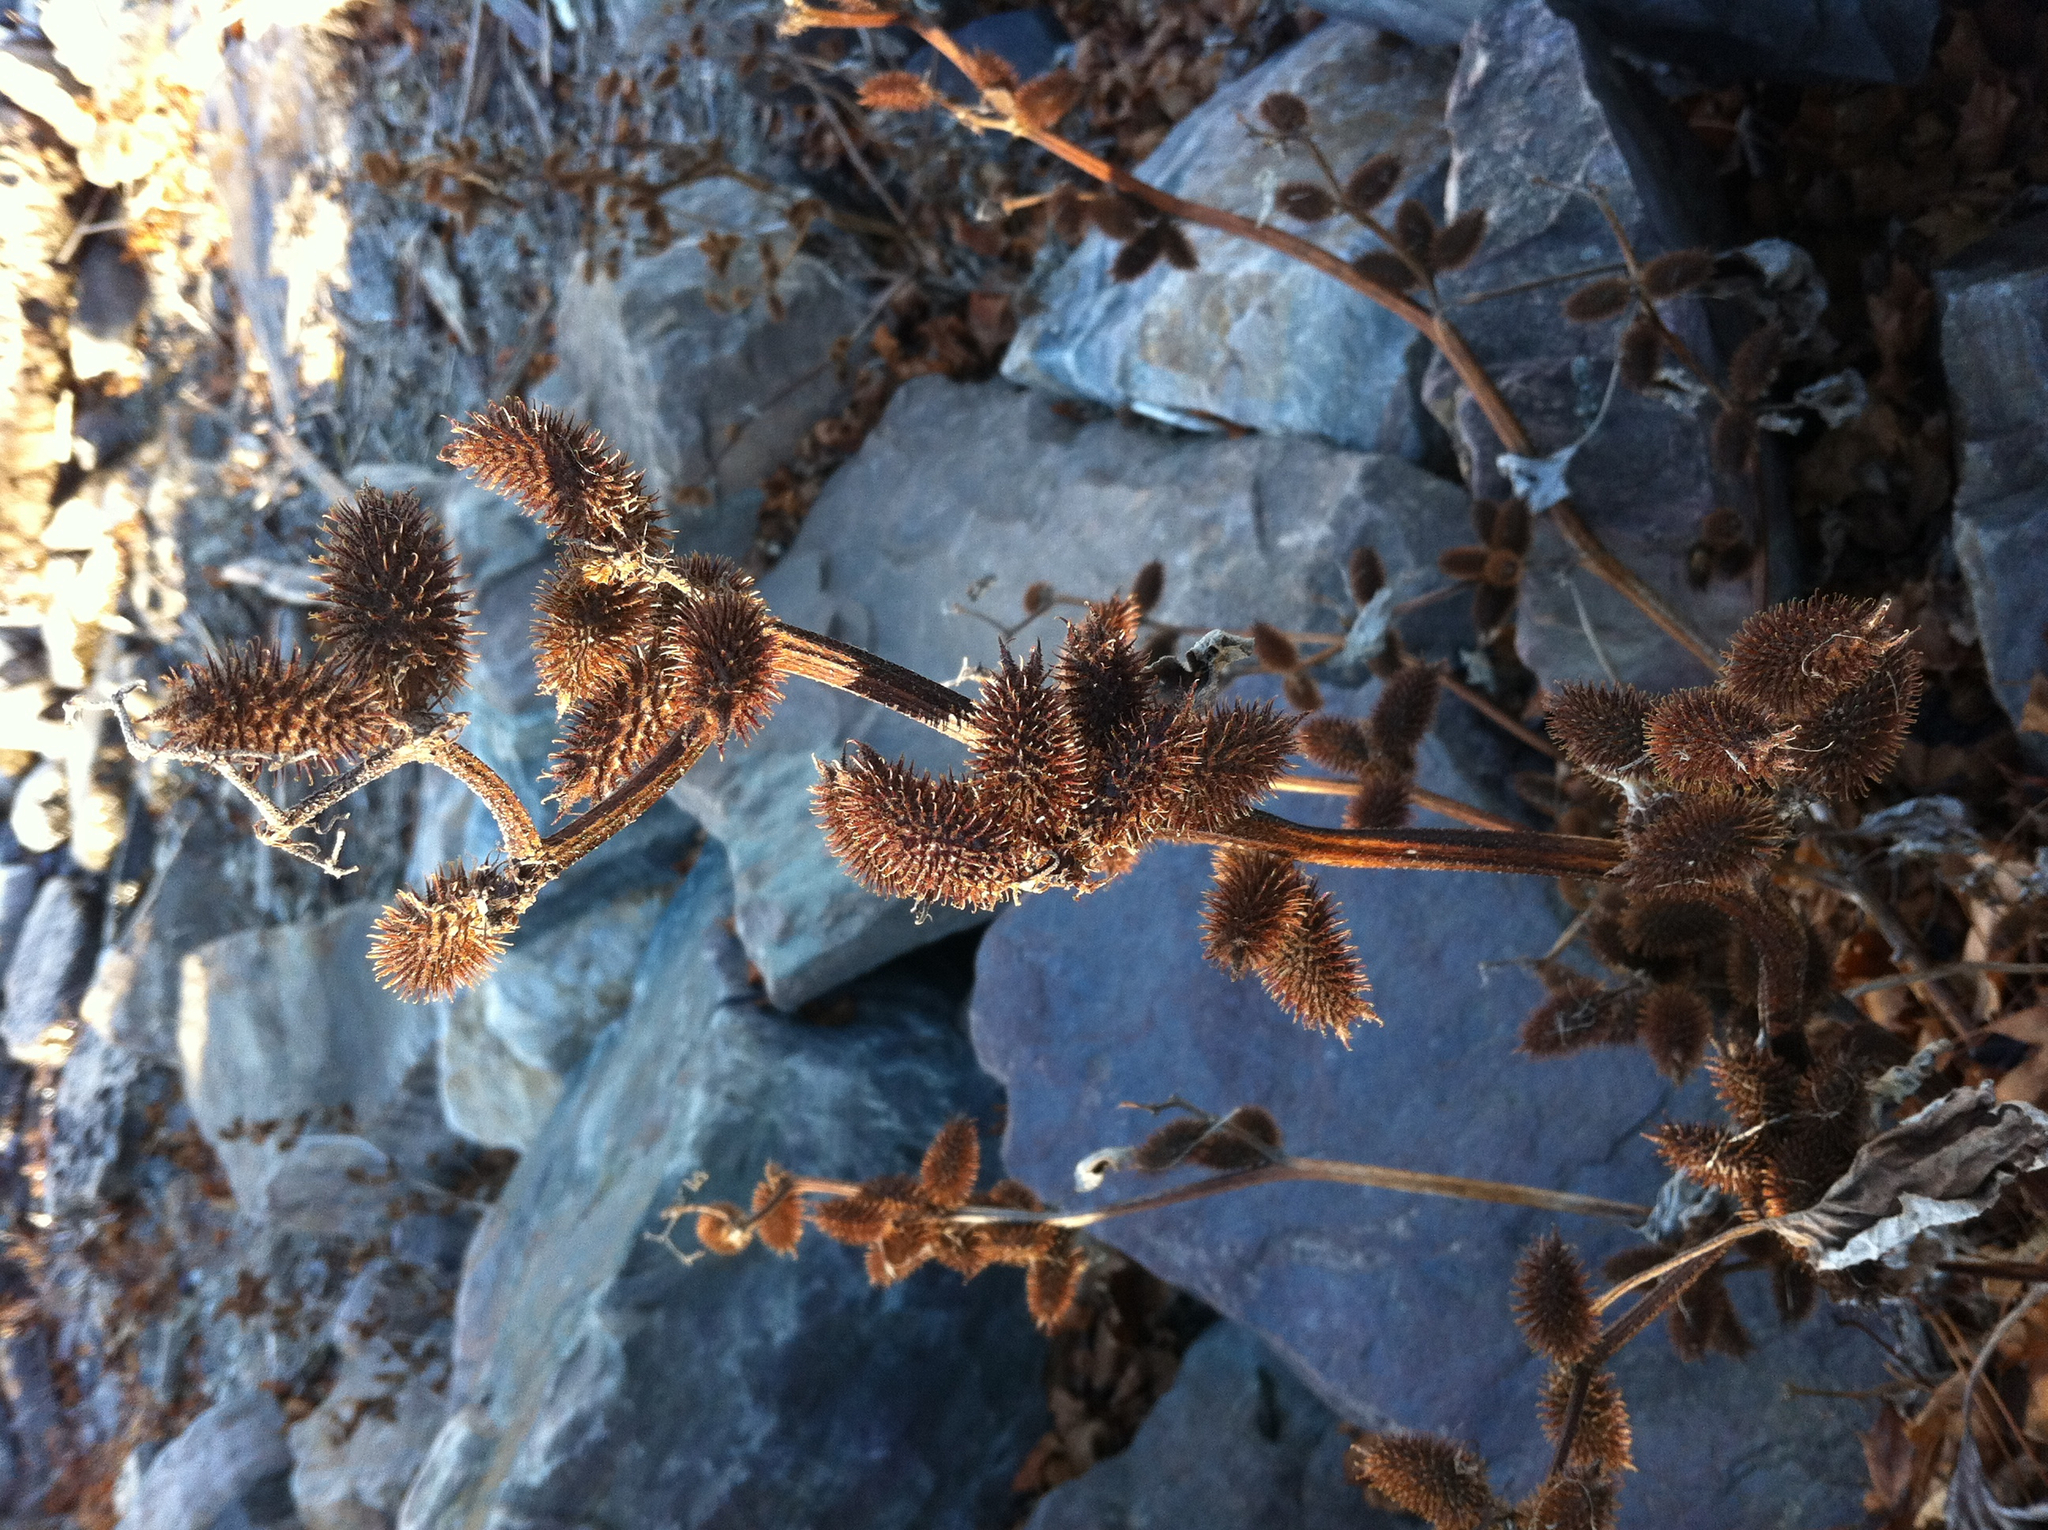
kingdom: Plantae
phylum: Tracheophyta
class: Magnoliopsida
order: Asterales
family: Asteraceae
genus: Xanthium
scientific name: Xanthium strumarium
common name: Rough cocklebur
